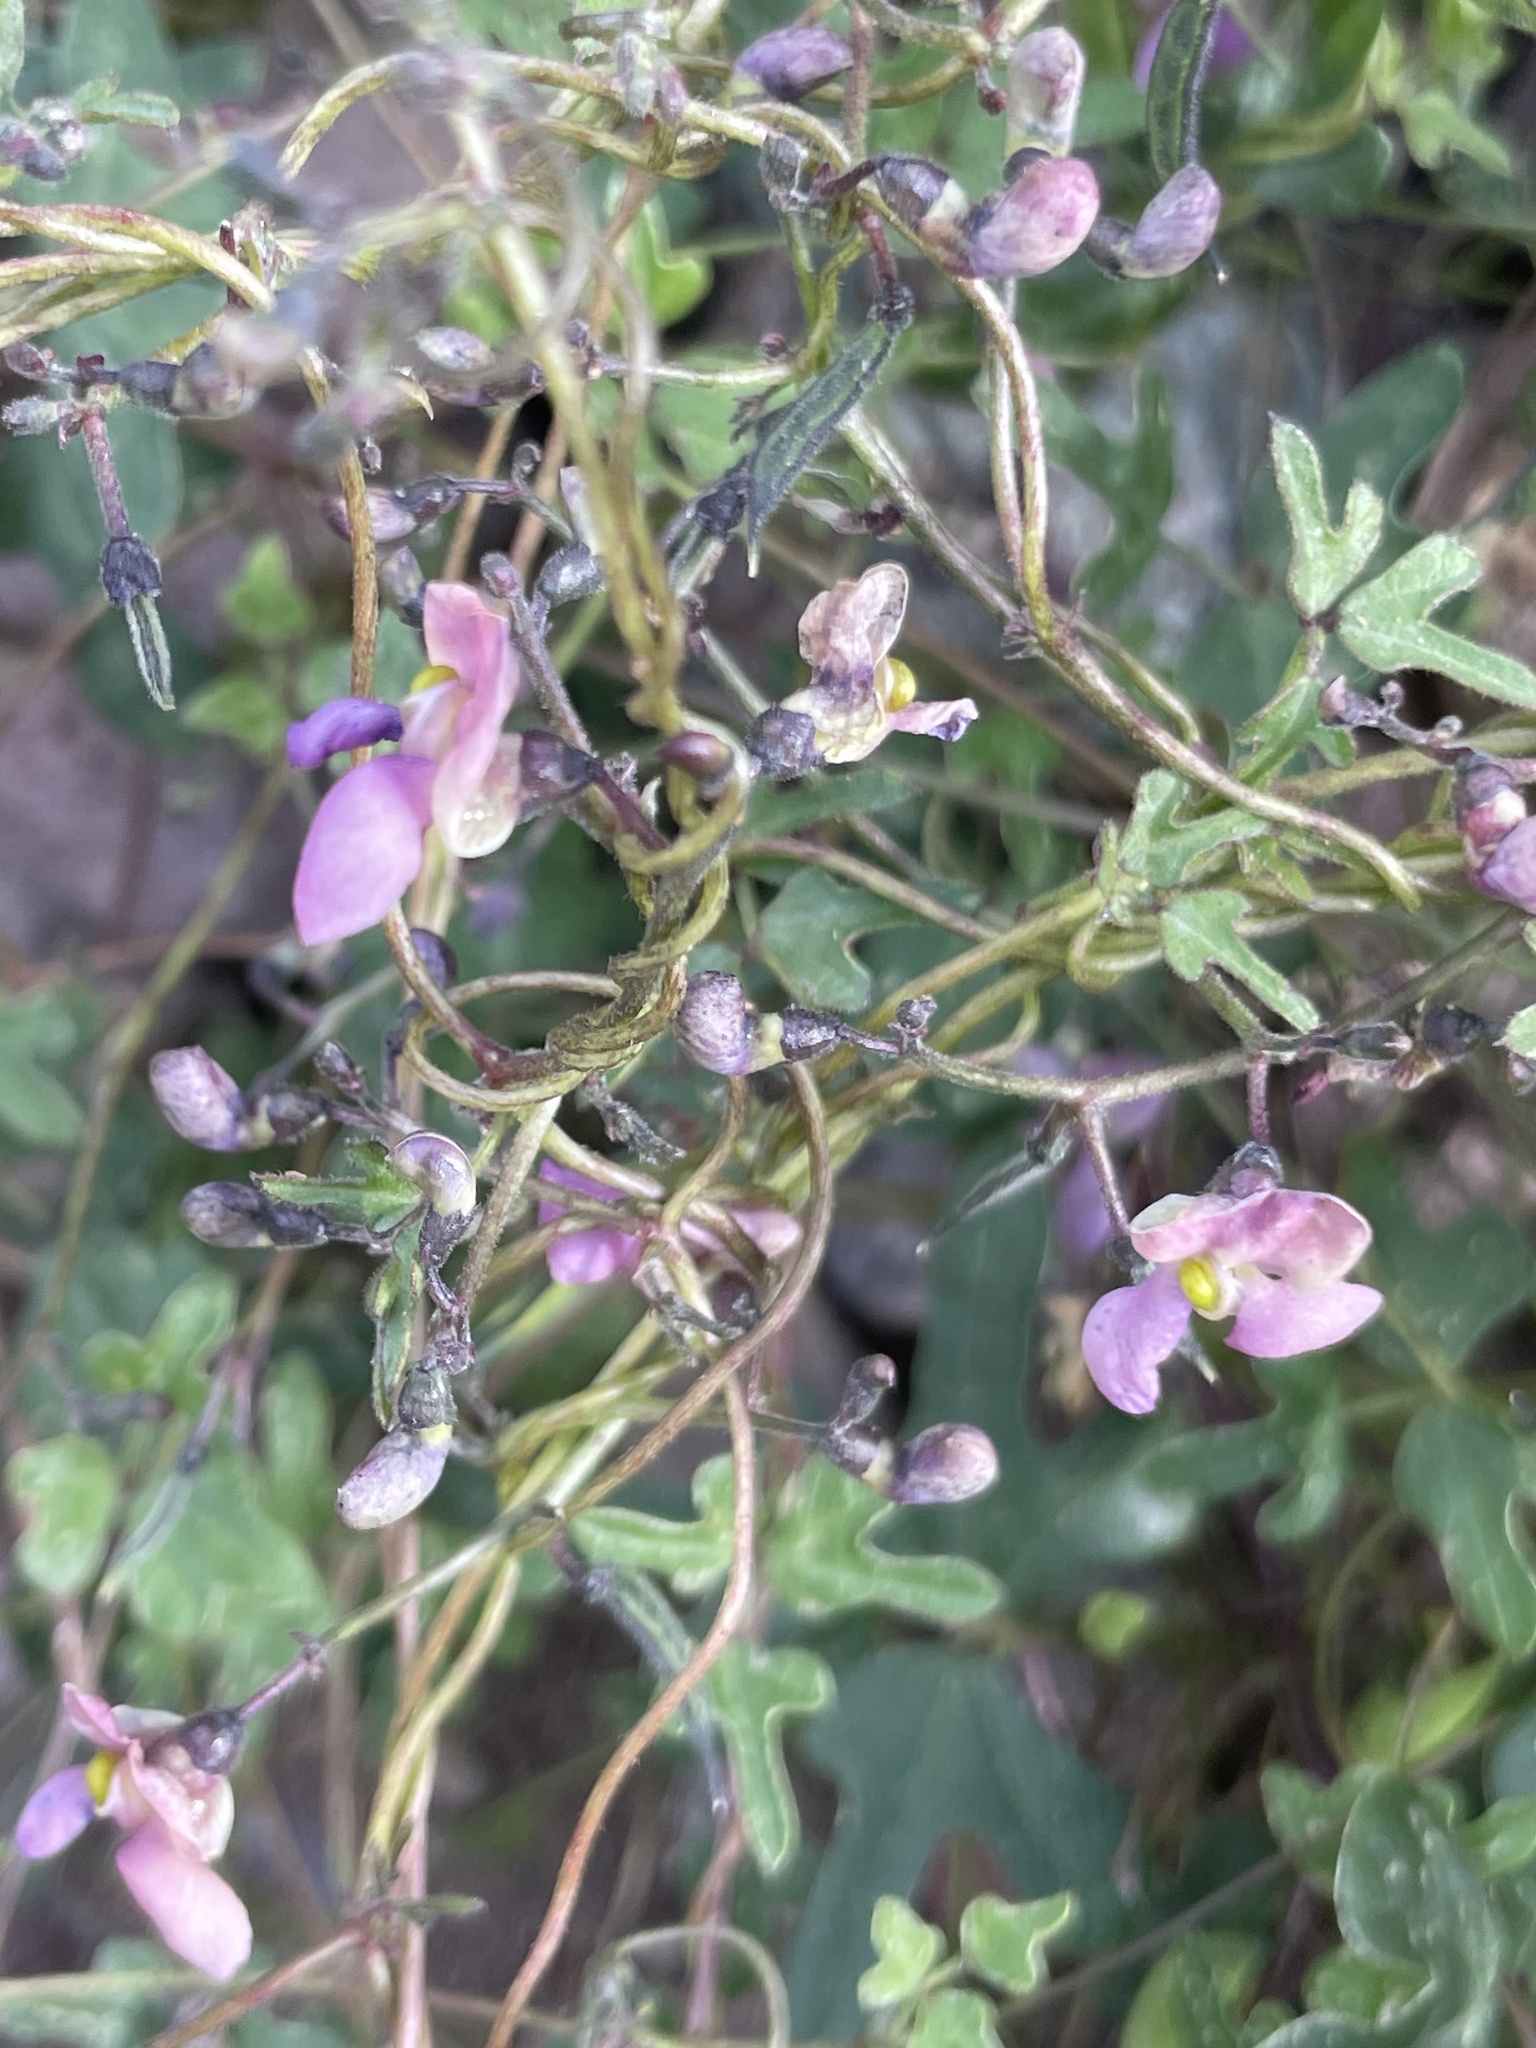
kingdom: Plantae
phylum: Tracheophyta
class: Magnoliopsida
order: Fabales
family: Fabaceae
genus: Phaseolus
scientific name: Phaseolus filiformis
